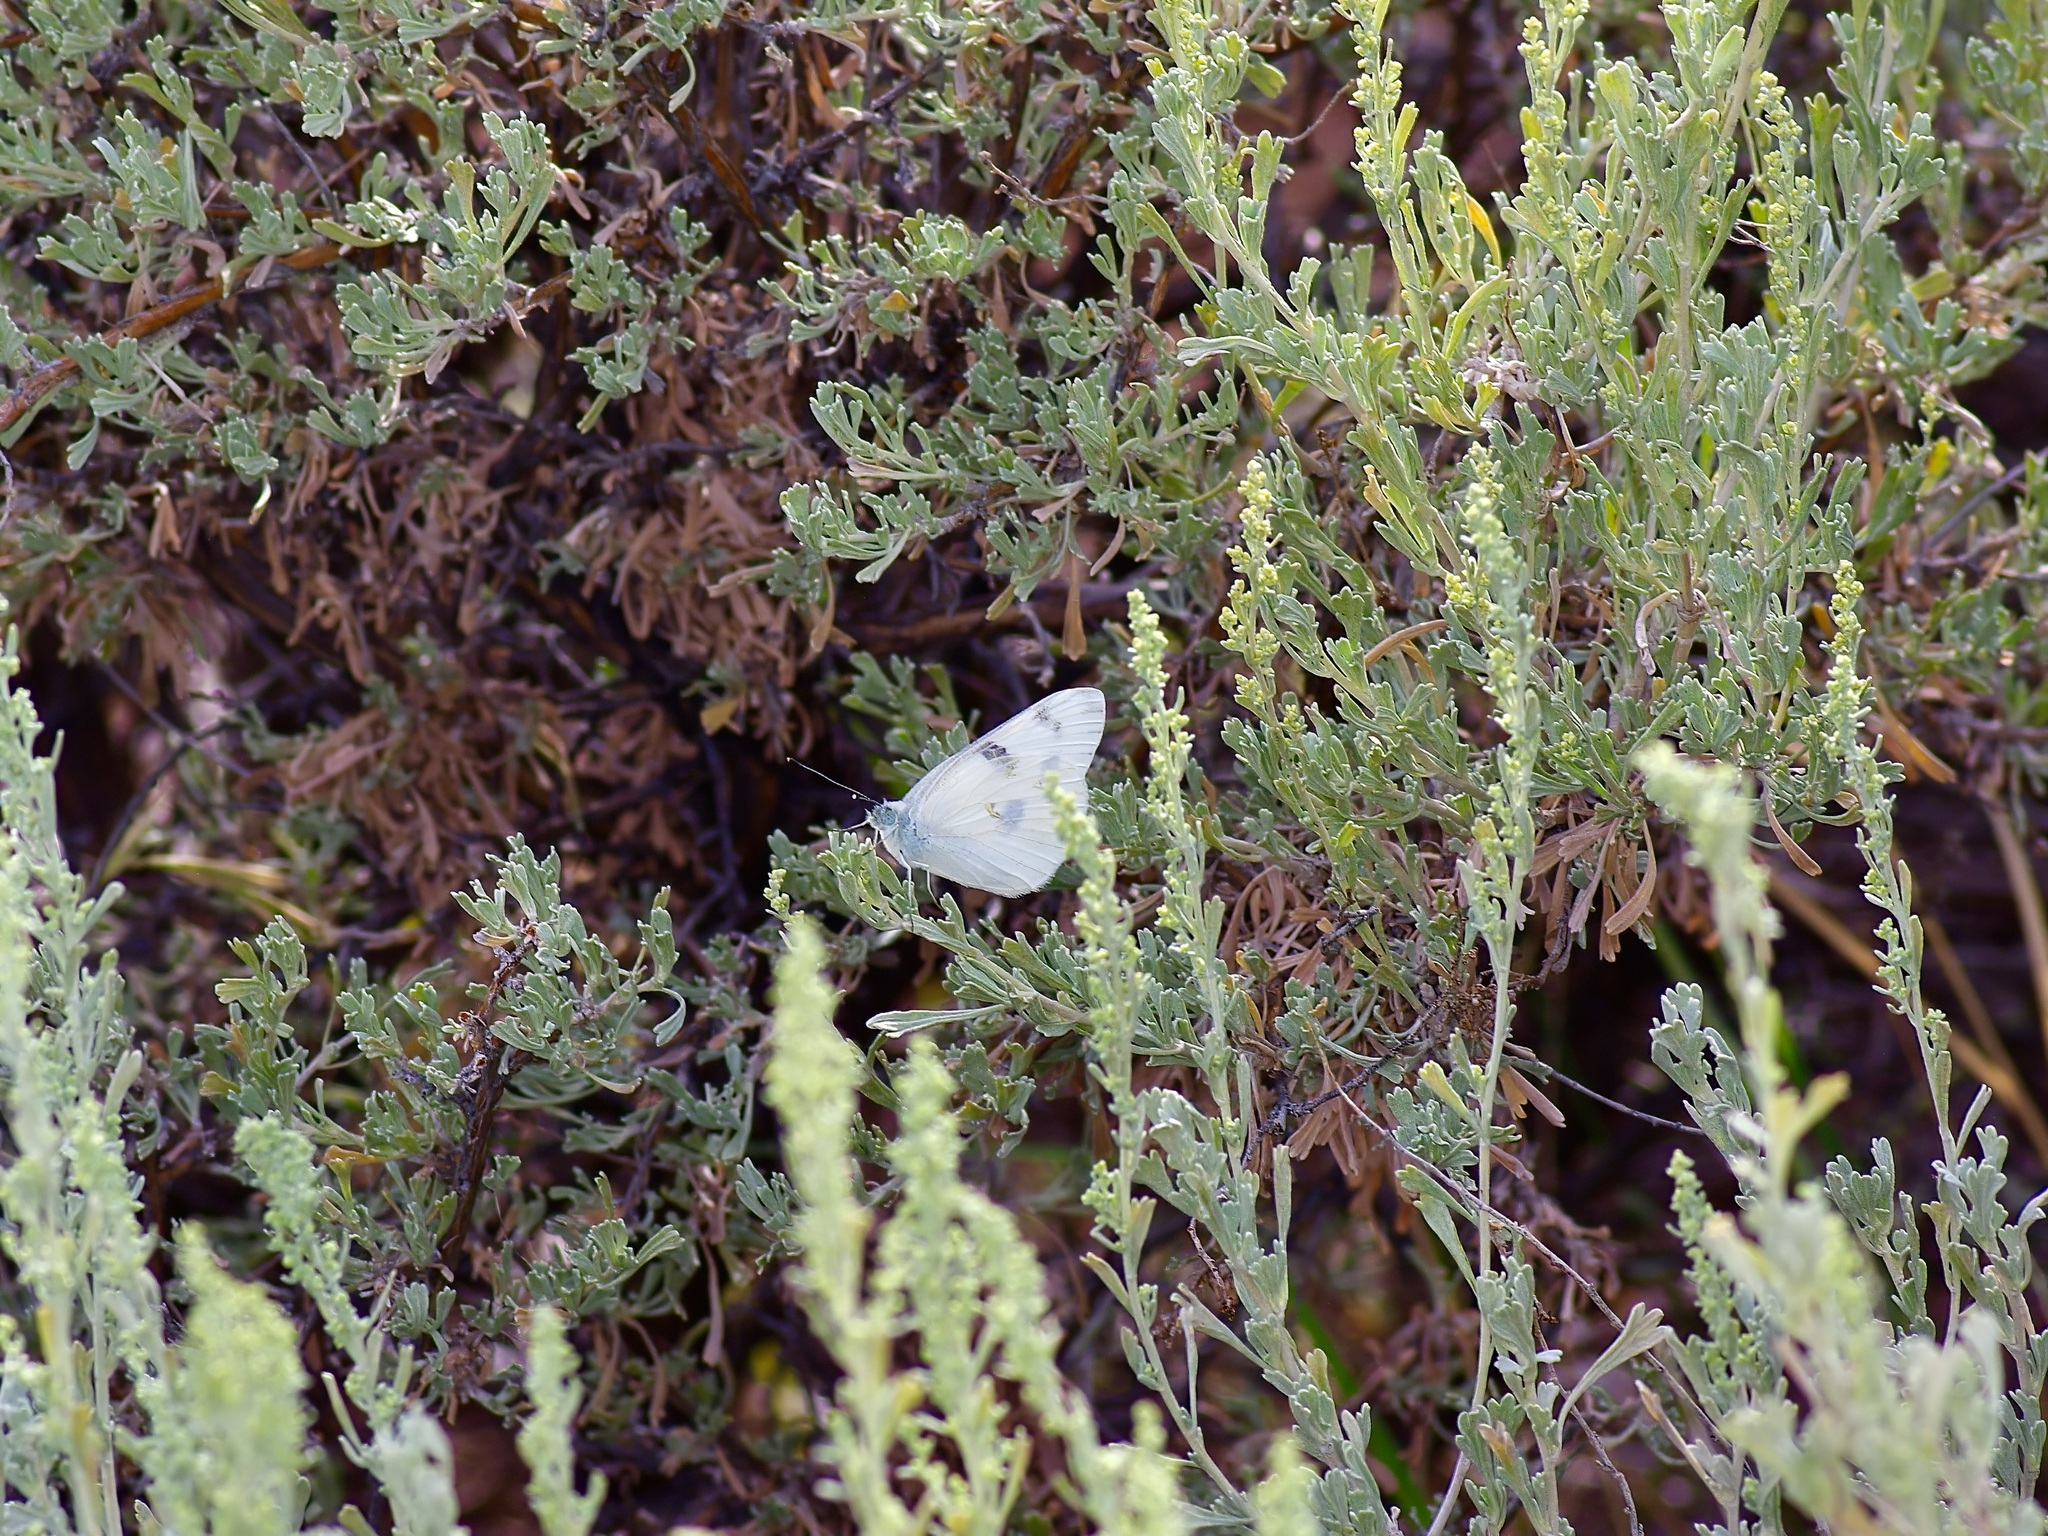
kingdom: Animalia
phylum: Arthropoda
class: Insecta
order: Lepidoptera
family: Pieridae
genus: Pontia
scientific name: Pontia protodice
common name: Checkered white
